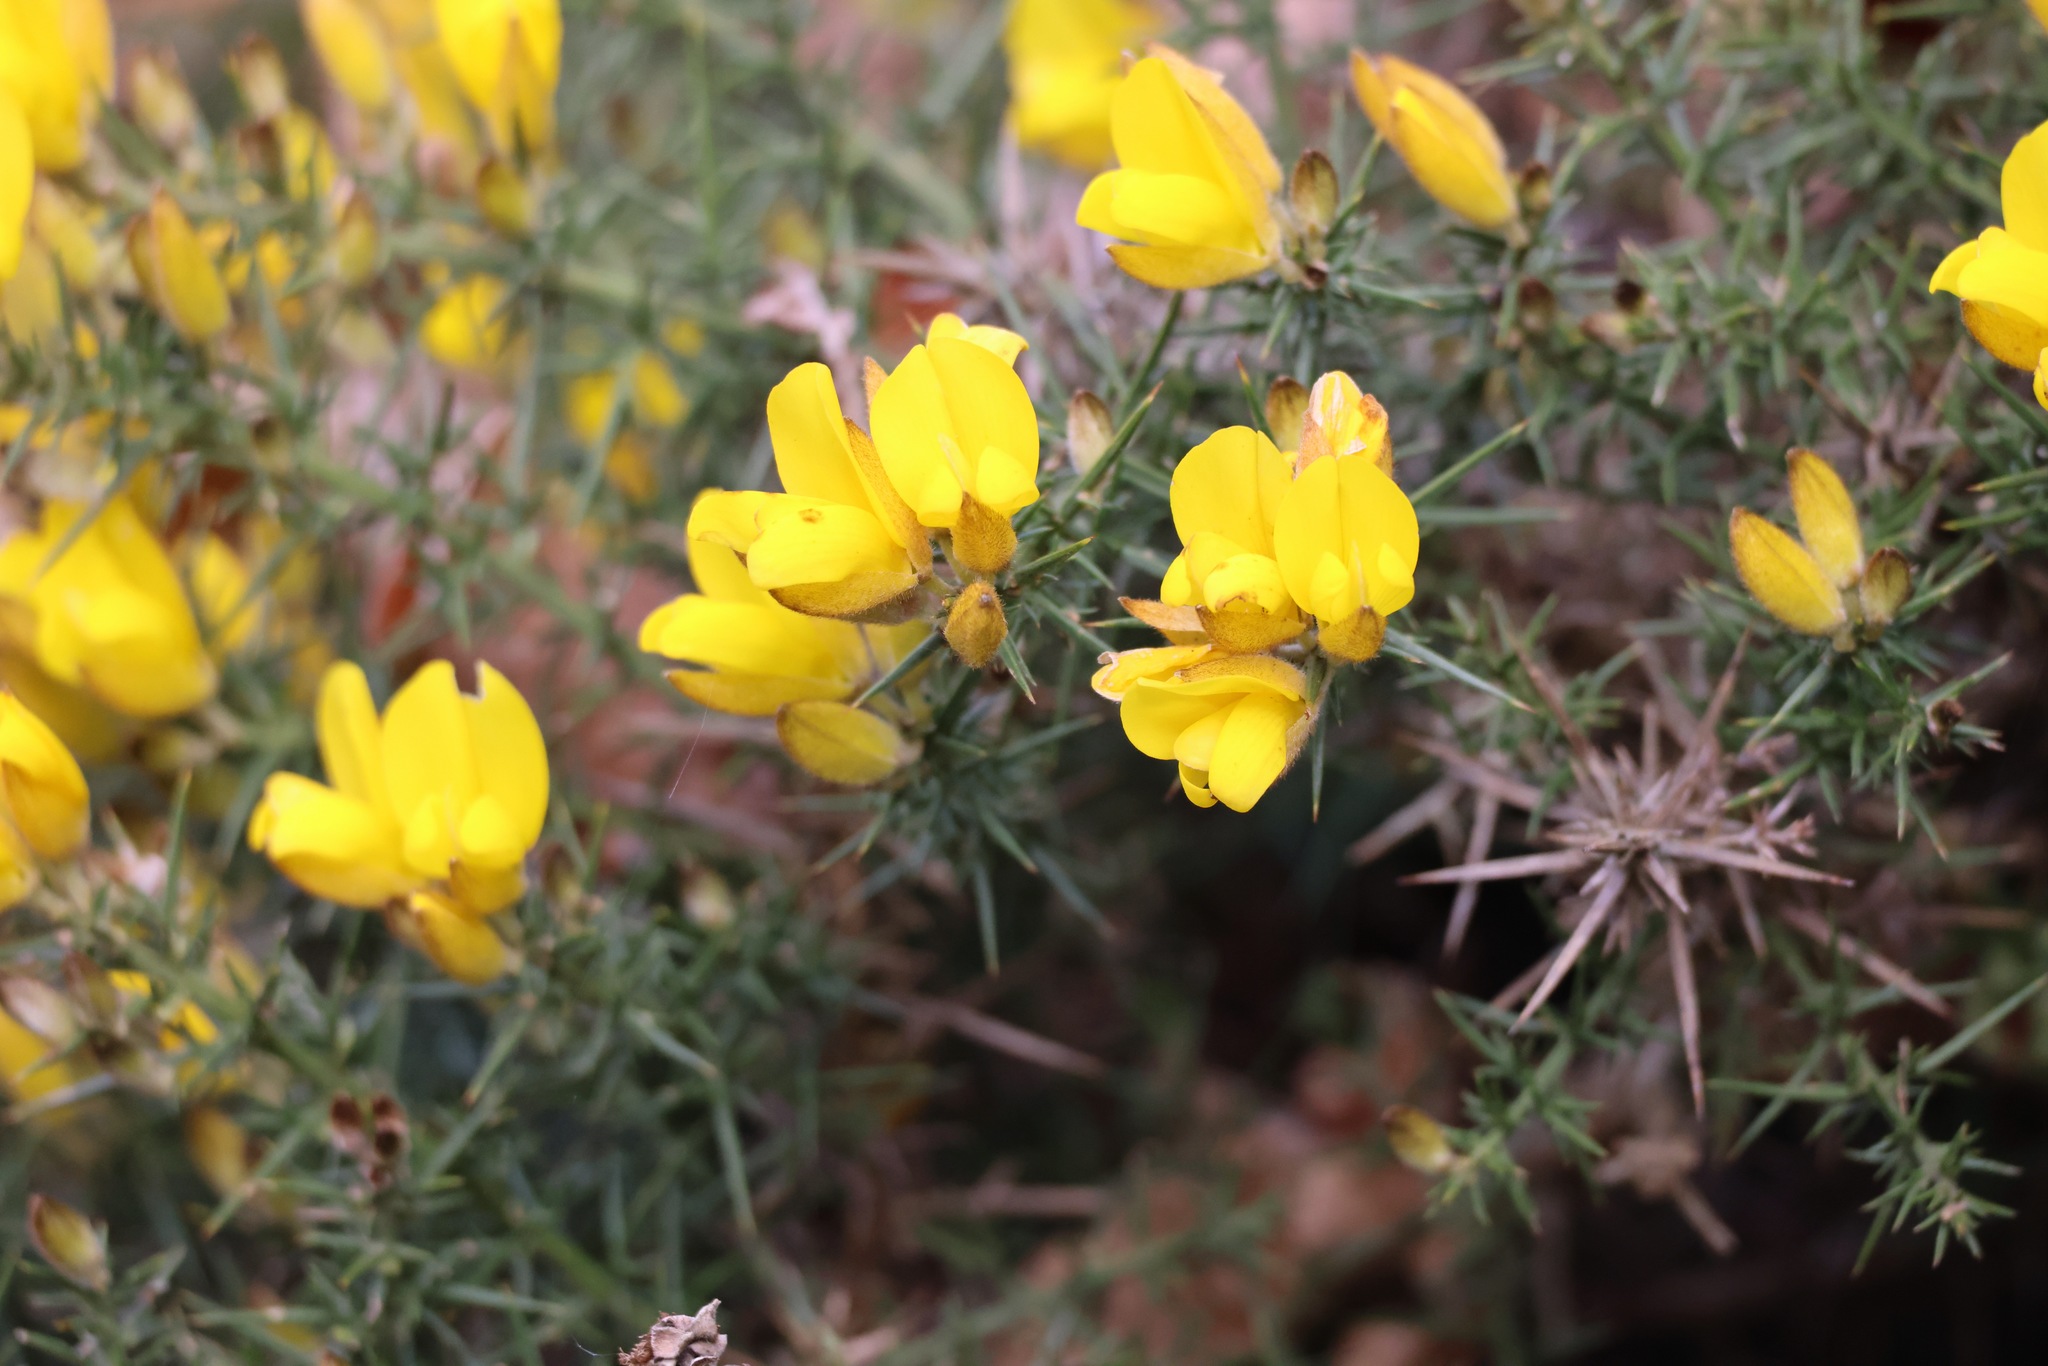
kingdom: Plantae
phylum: Tracheophyta
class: Magnoliopsida
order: Fabales
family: Fabaceae
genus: Ulex
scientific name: Ulex europaeus
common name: Common gorse
